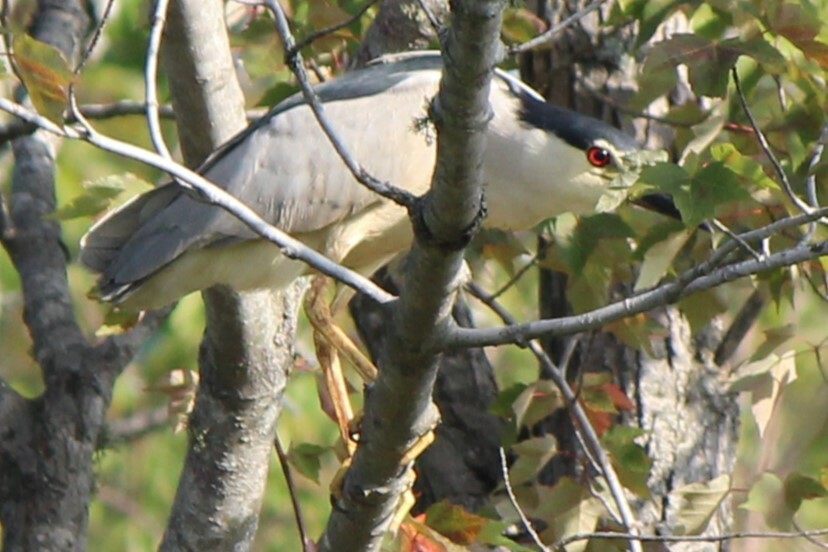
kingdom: Animalia
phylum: Chordata
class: Aves
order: Pelecaniformes
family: Ardeidae
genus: Nycticorax
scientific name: Nycticorax nycticorax
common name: Black-crowned night heron
